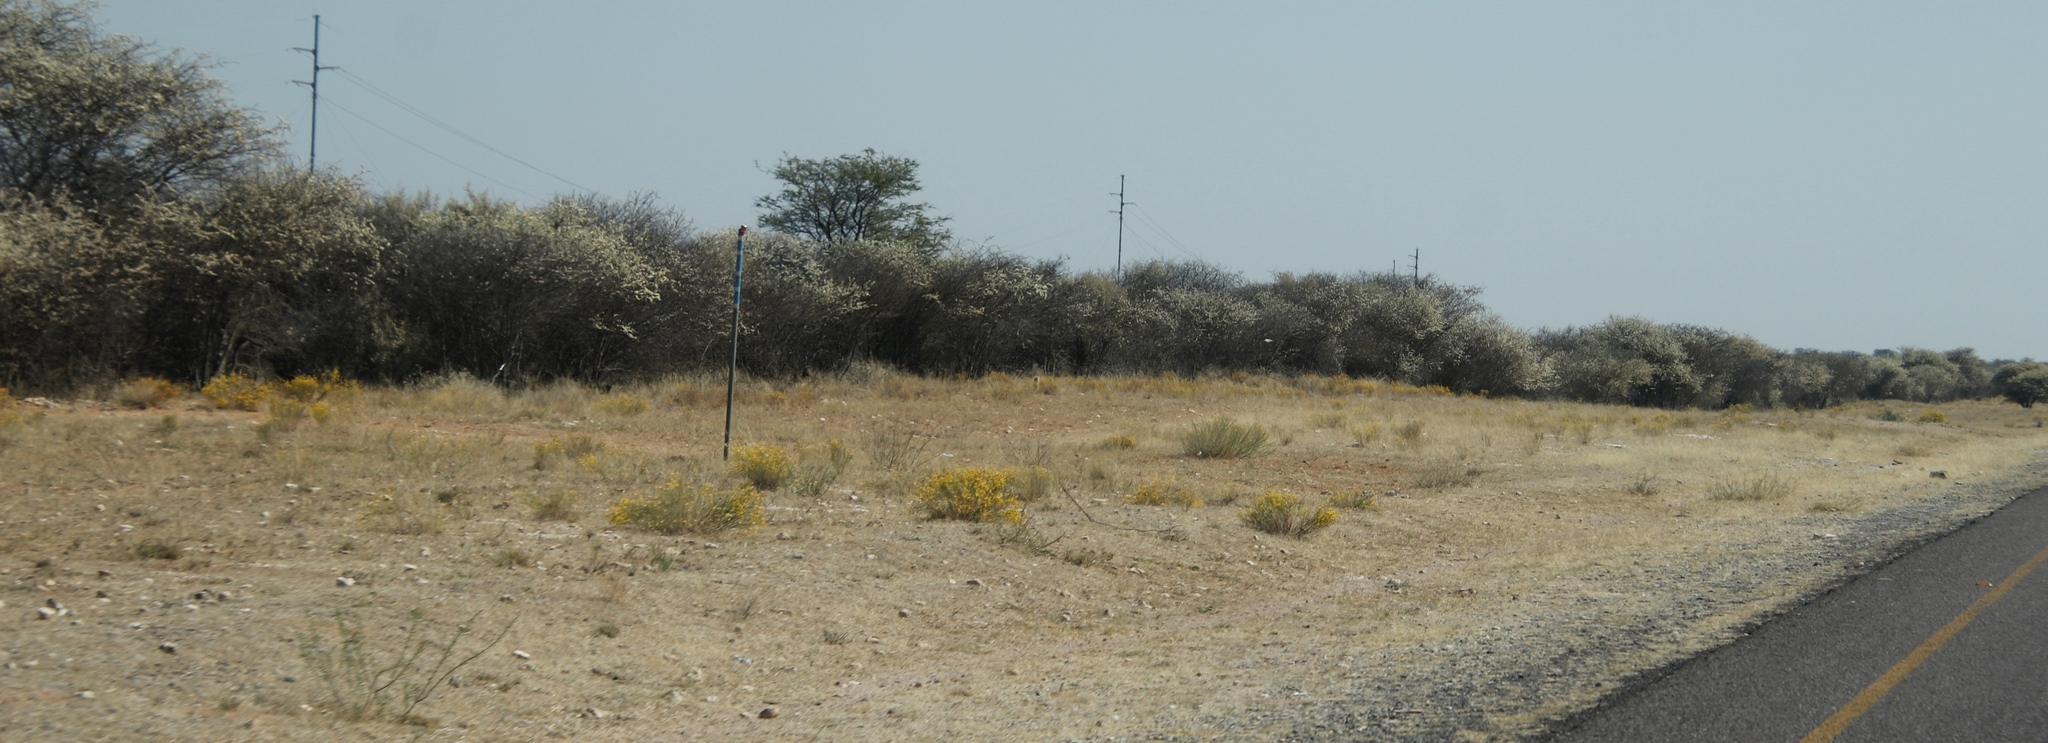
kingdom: Plantae
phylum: Tracheophyta
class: Magnoliopsida
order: Malvales
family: Thymelaeaceae
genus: Gnidia
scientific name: Gnidia polycephala
